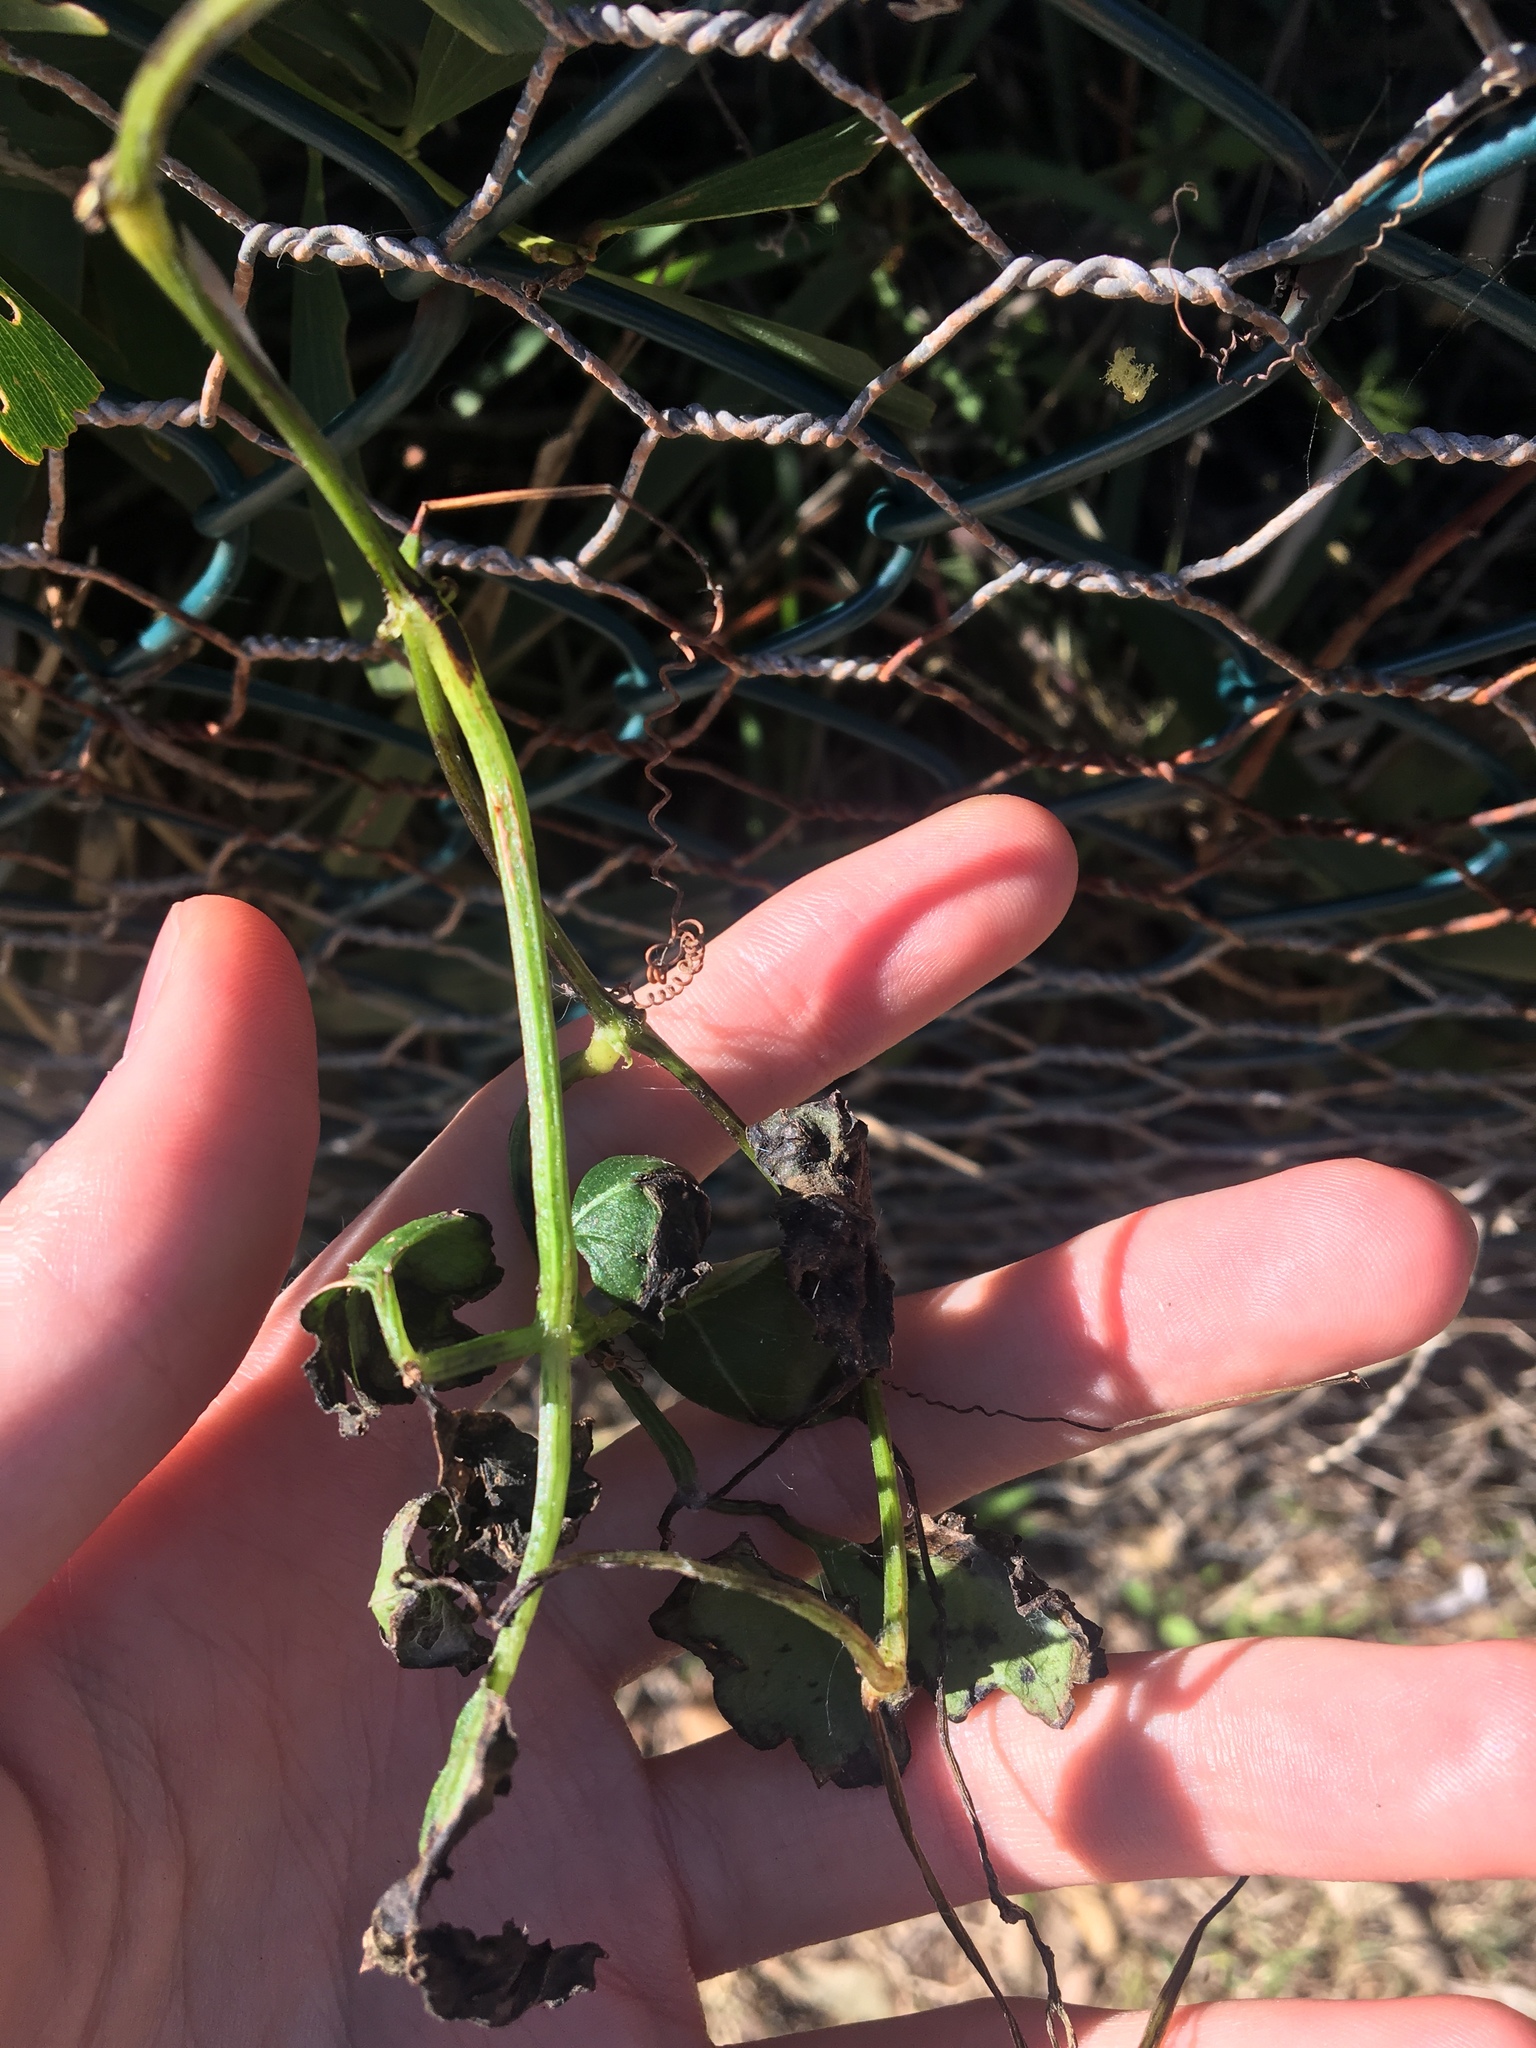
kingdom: Plantae
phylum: Tracheophyta
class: Magnoliopsida
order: Vitales
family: Vitaceae
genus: Causonis
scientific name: Causonis clematidea
